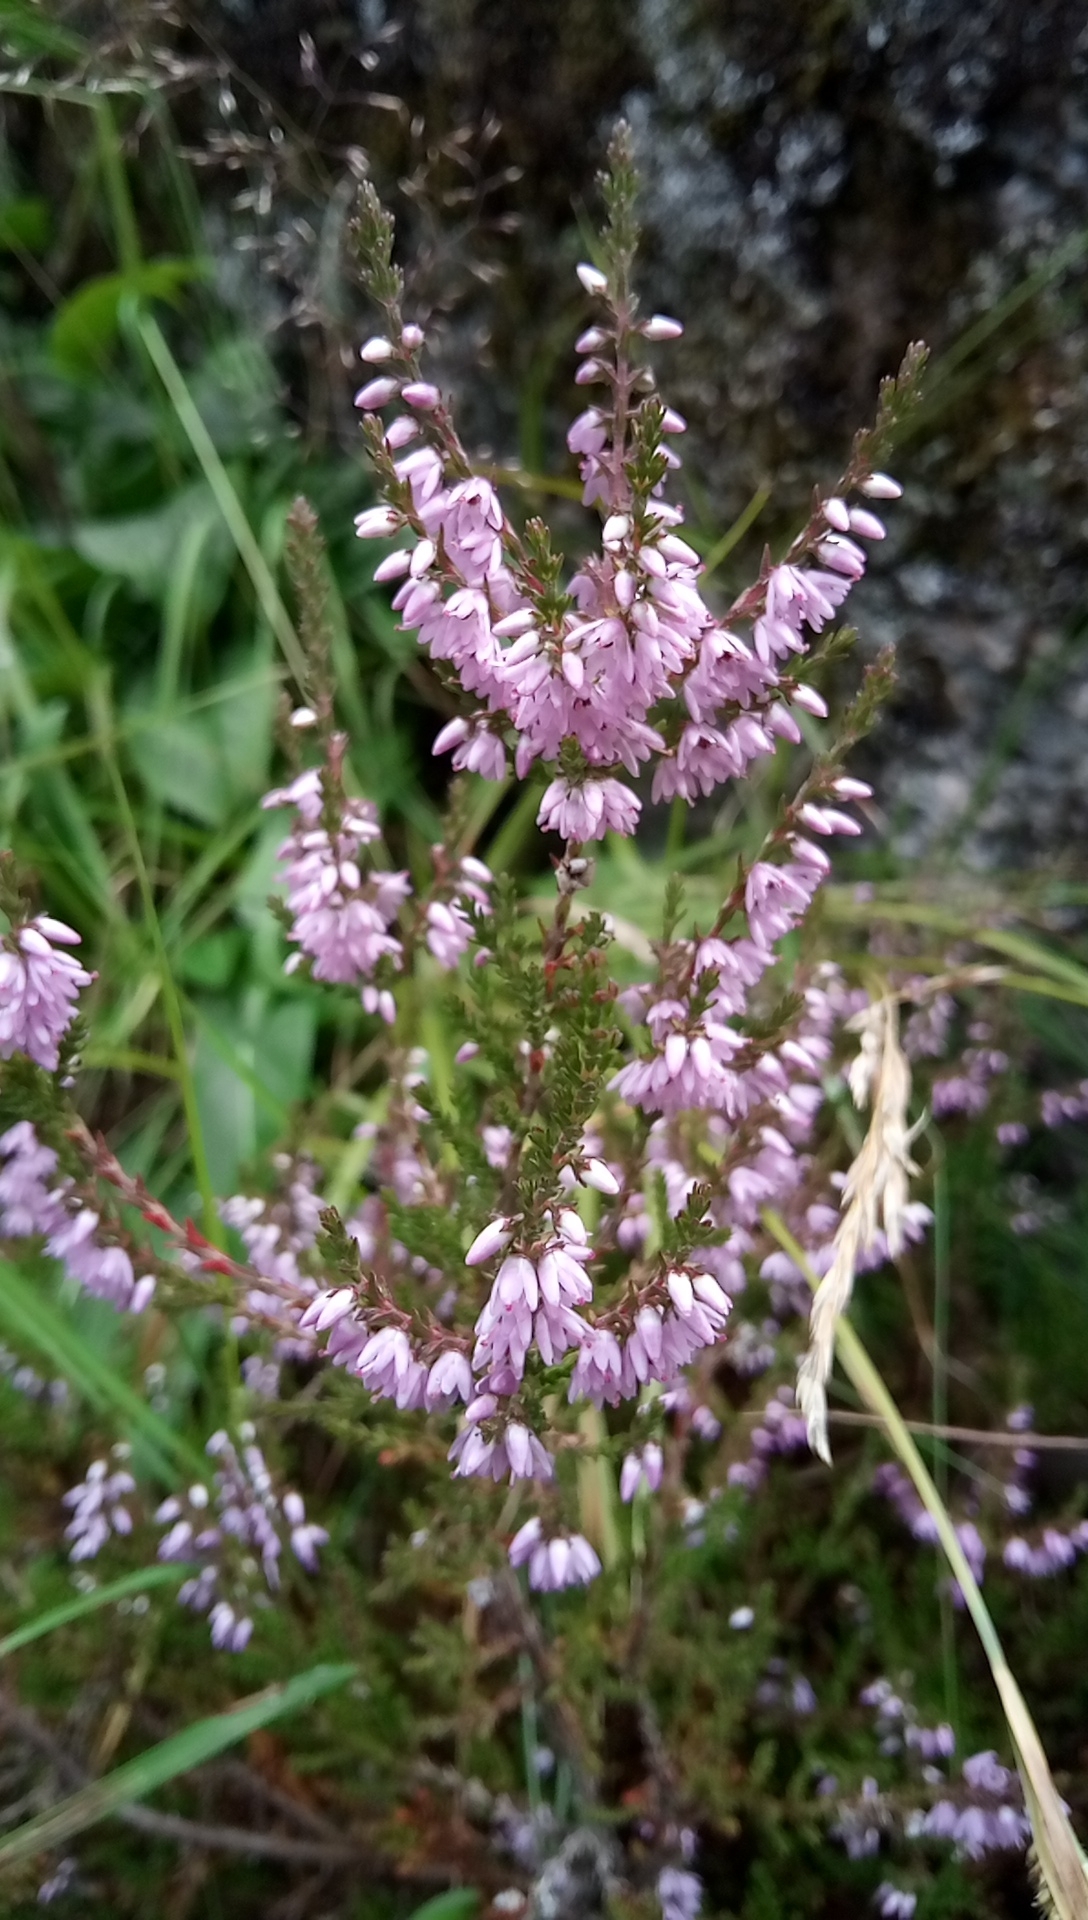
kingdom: Plantae
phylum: Tracheophyta
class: Magnoliopsida
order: Ericales
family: Ericaceae
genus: Calluna
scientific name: Calluna vulgaris
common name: Heather
